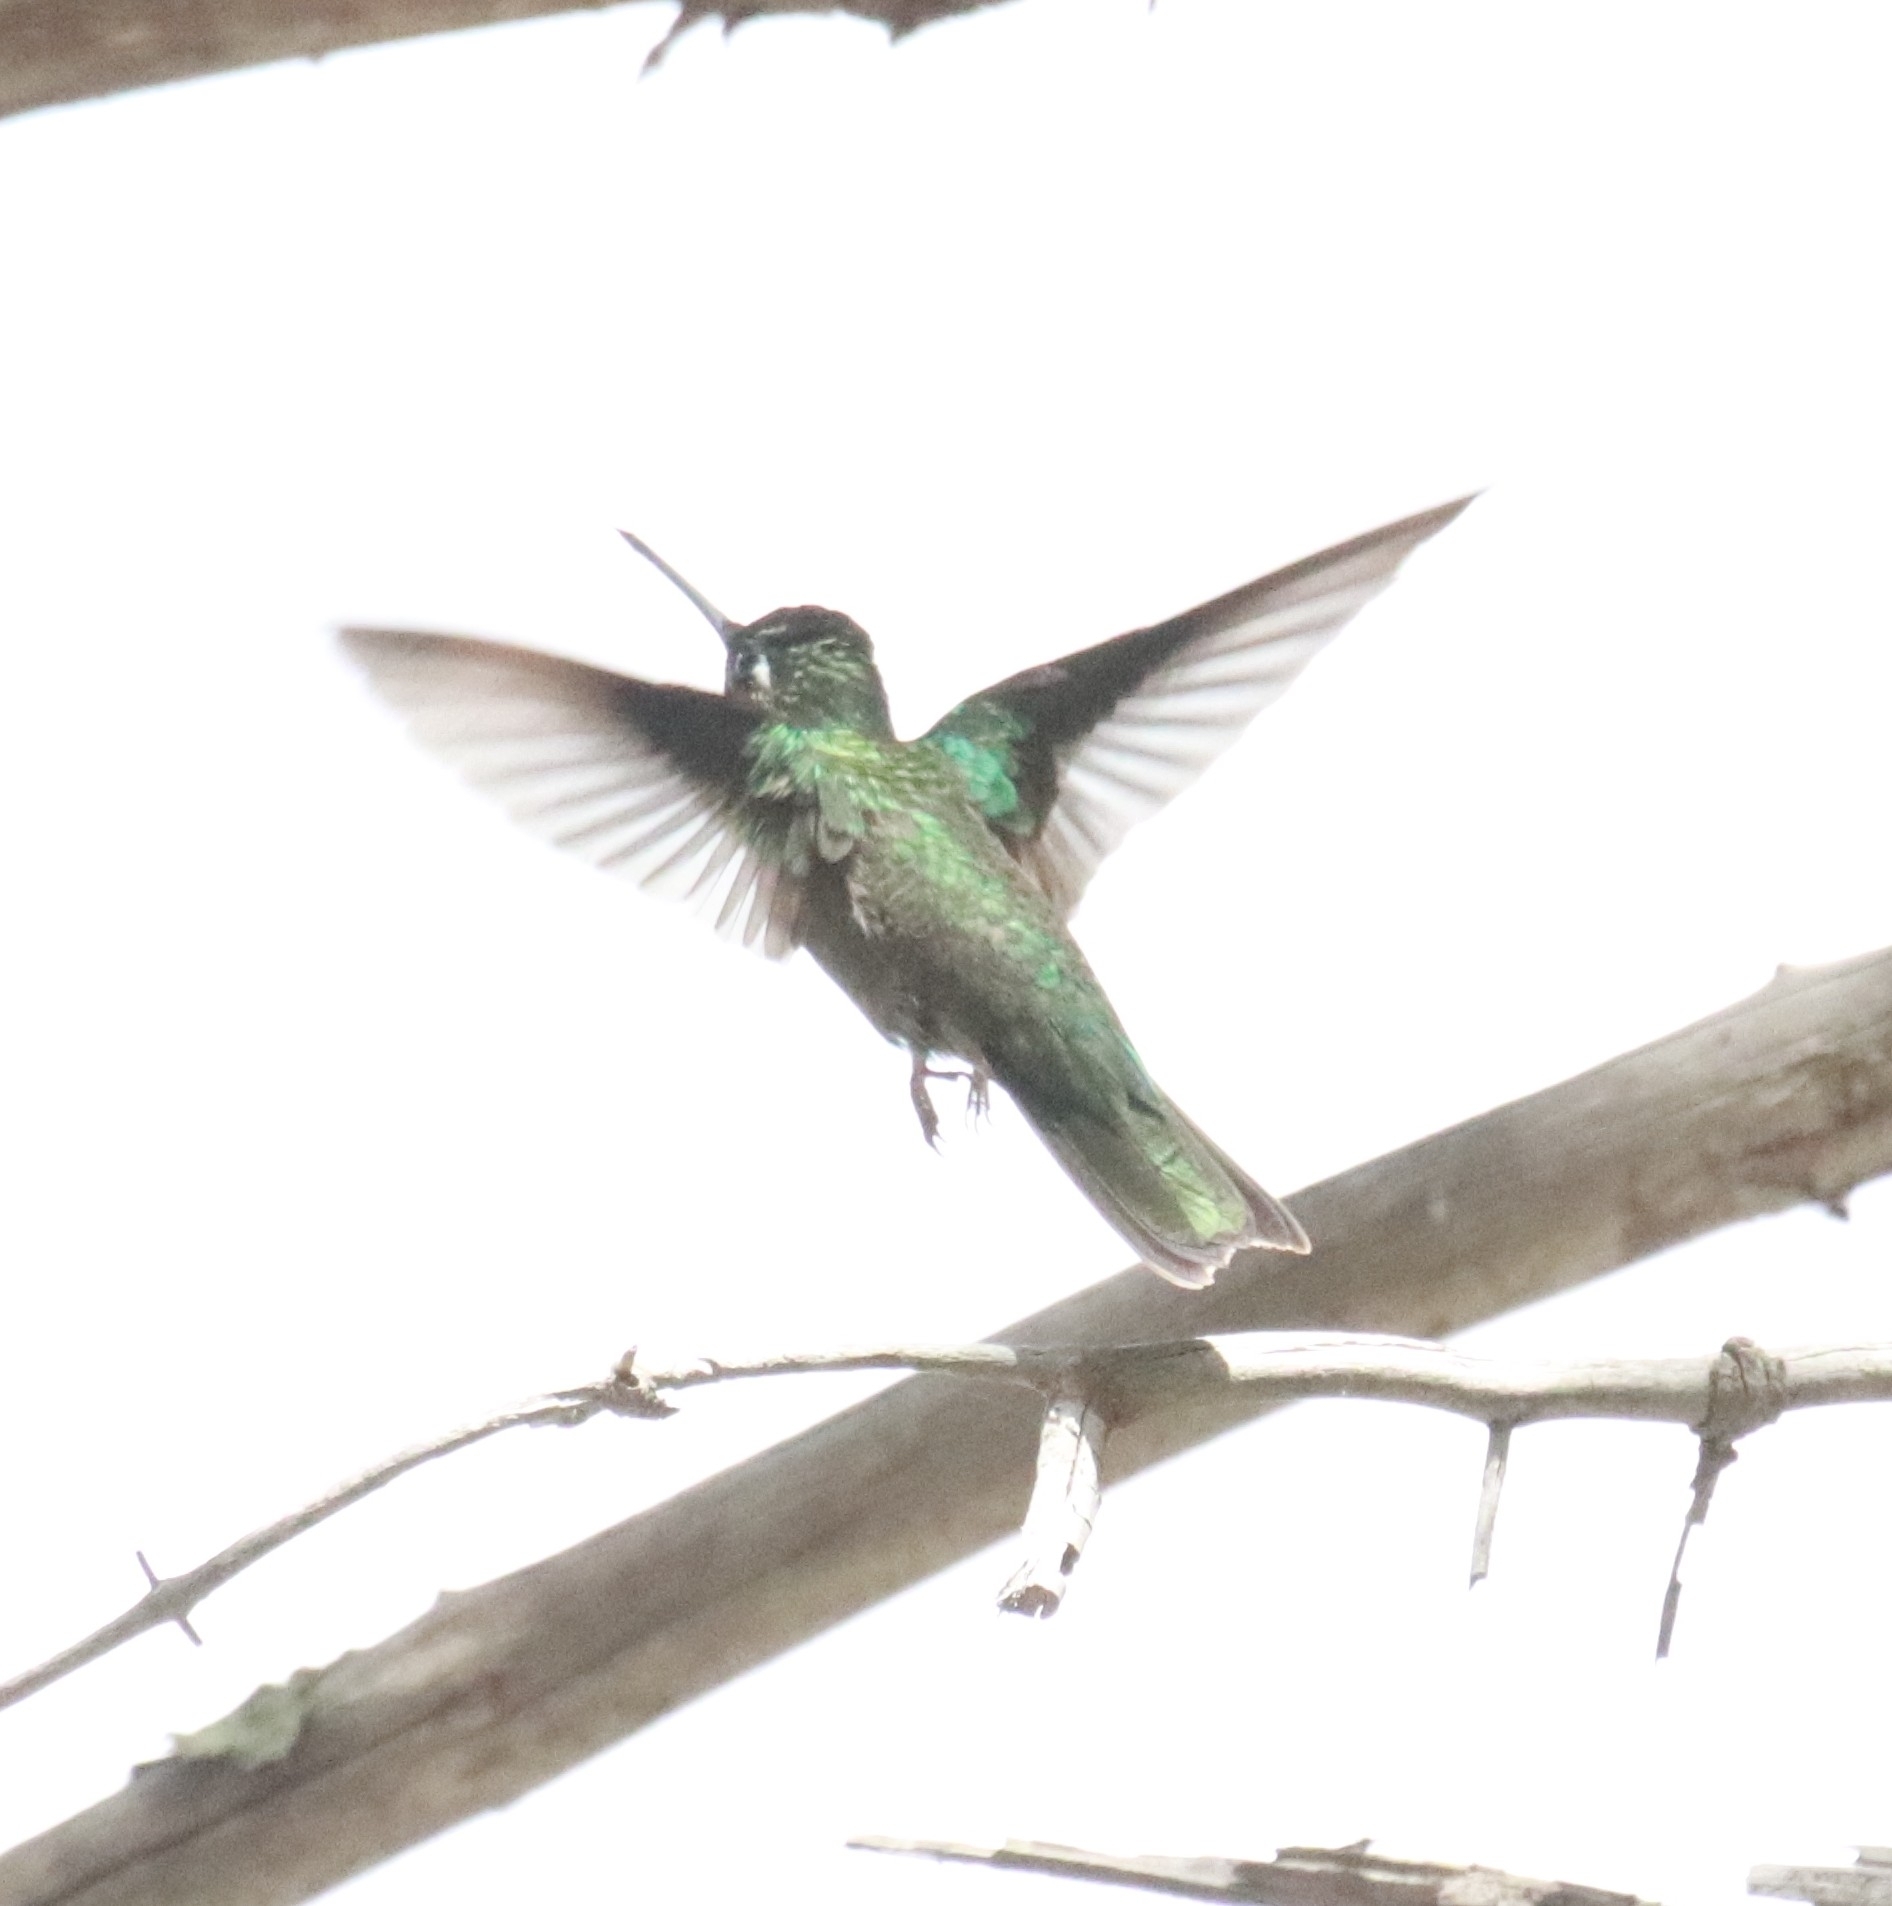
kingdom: Animalia
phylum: Chordata
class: Aves
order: Apodiformes
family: Trochilidae
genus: Eugenes
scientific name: Eugenes fulgens
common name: Magnificent hummingbird
